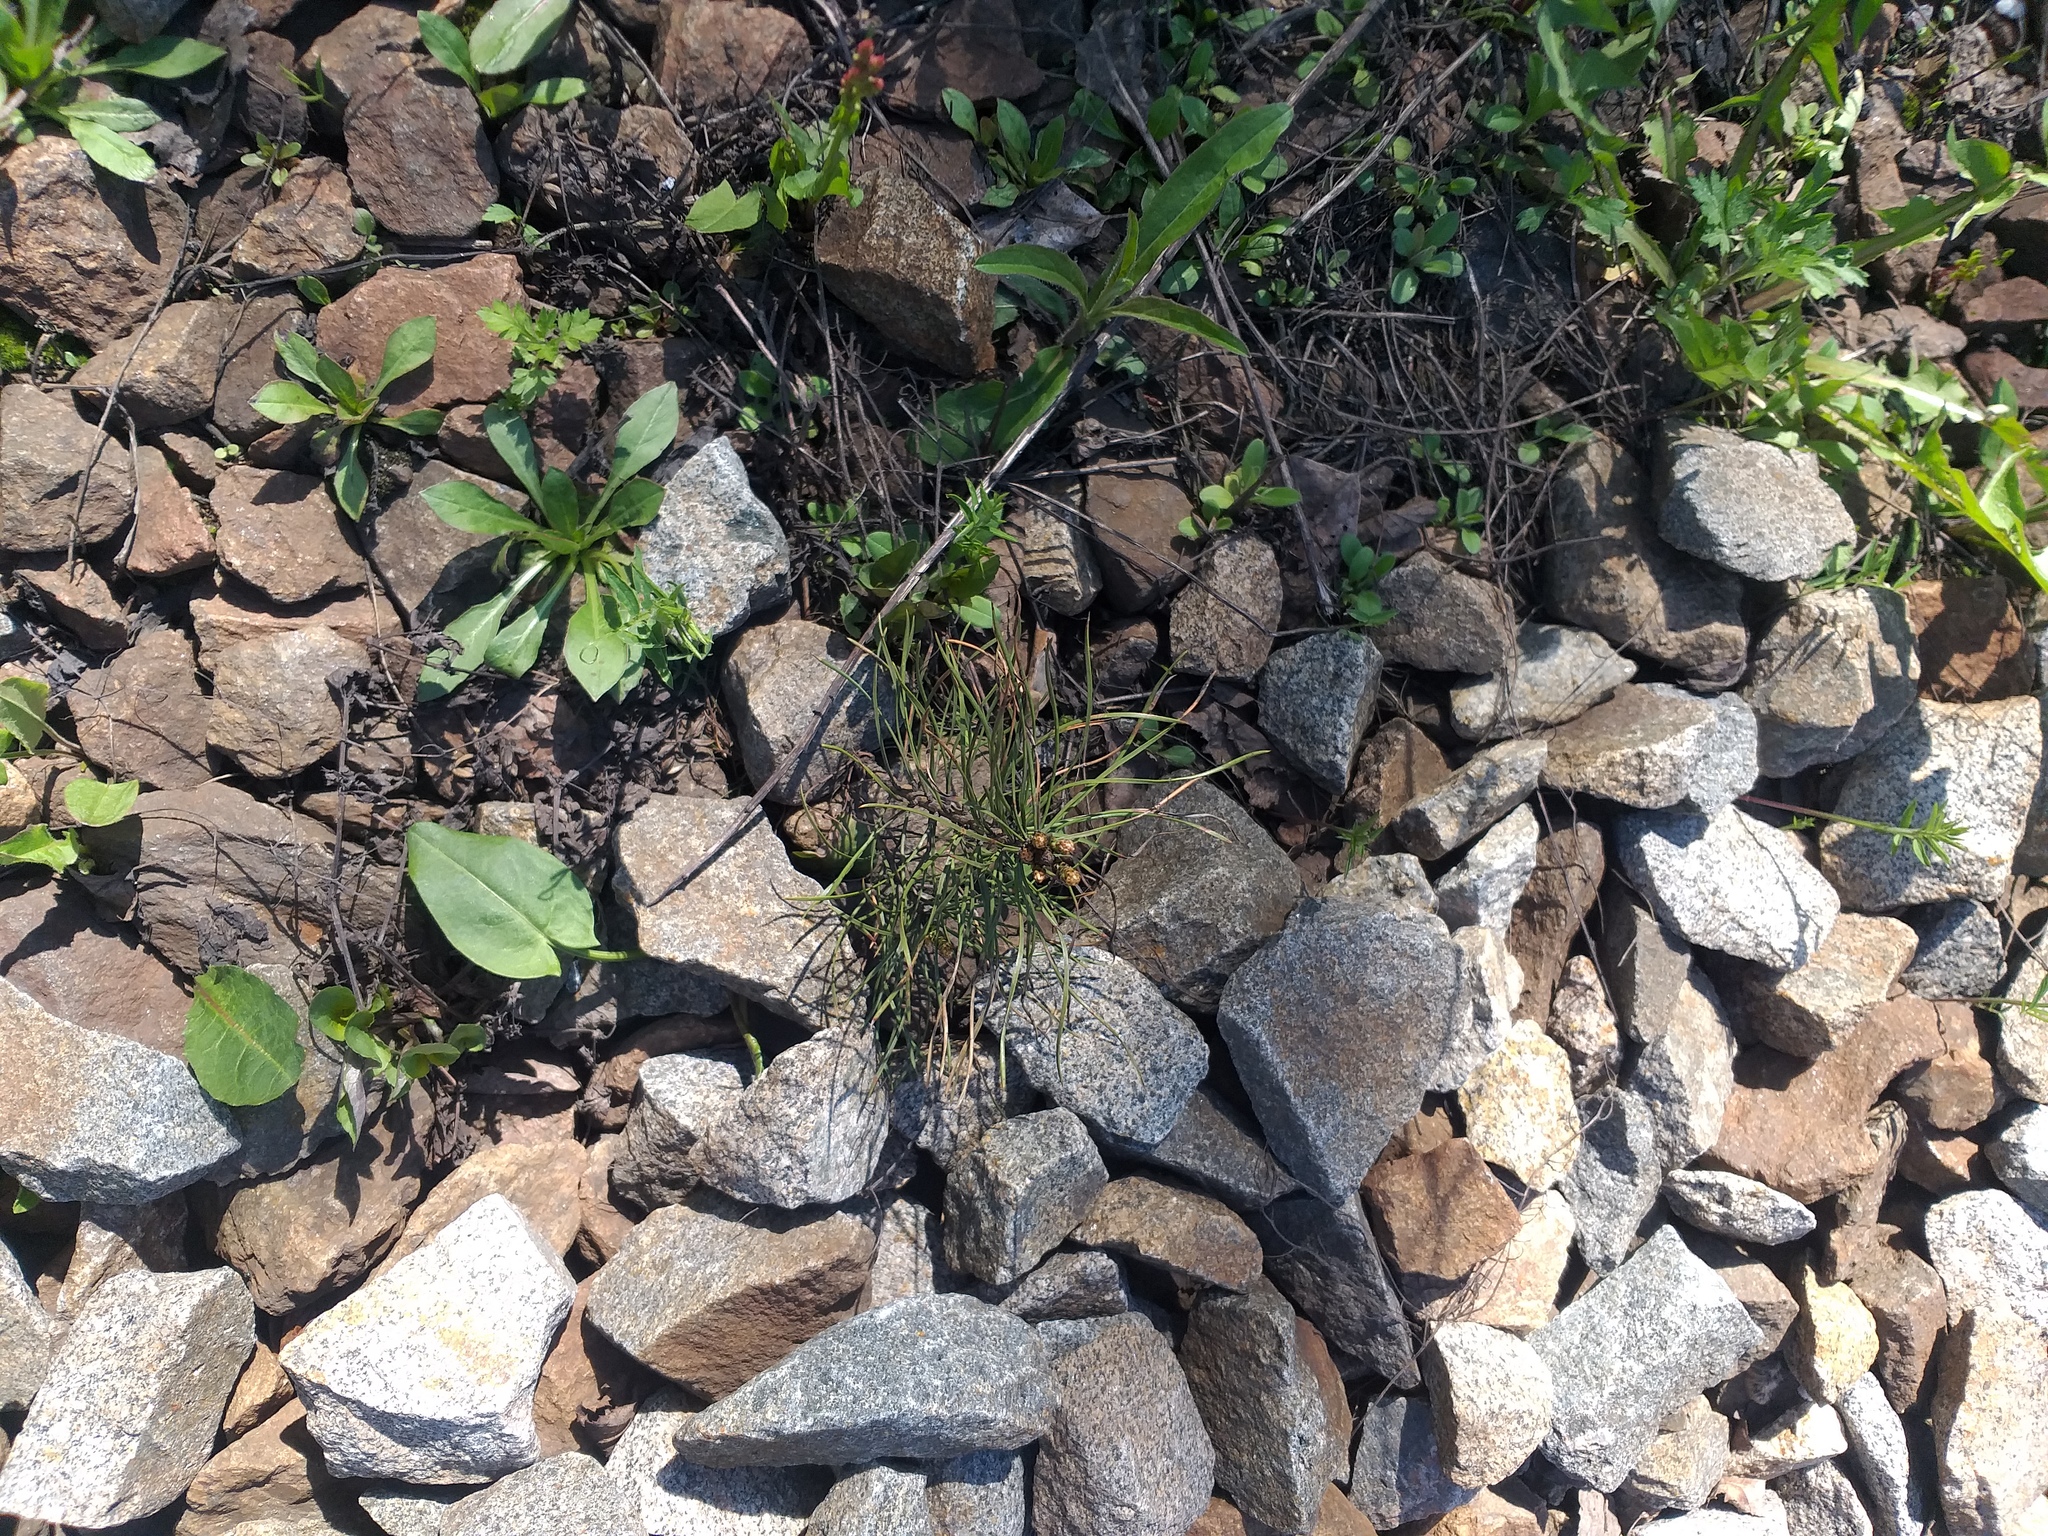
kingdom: Plantae
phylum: Tracheophyta
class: Pinopsida
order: Pinales
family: Pinaceae
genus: Pinus
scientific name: Pinus sylvestris
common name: Scots pine
